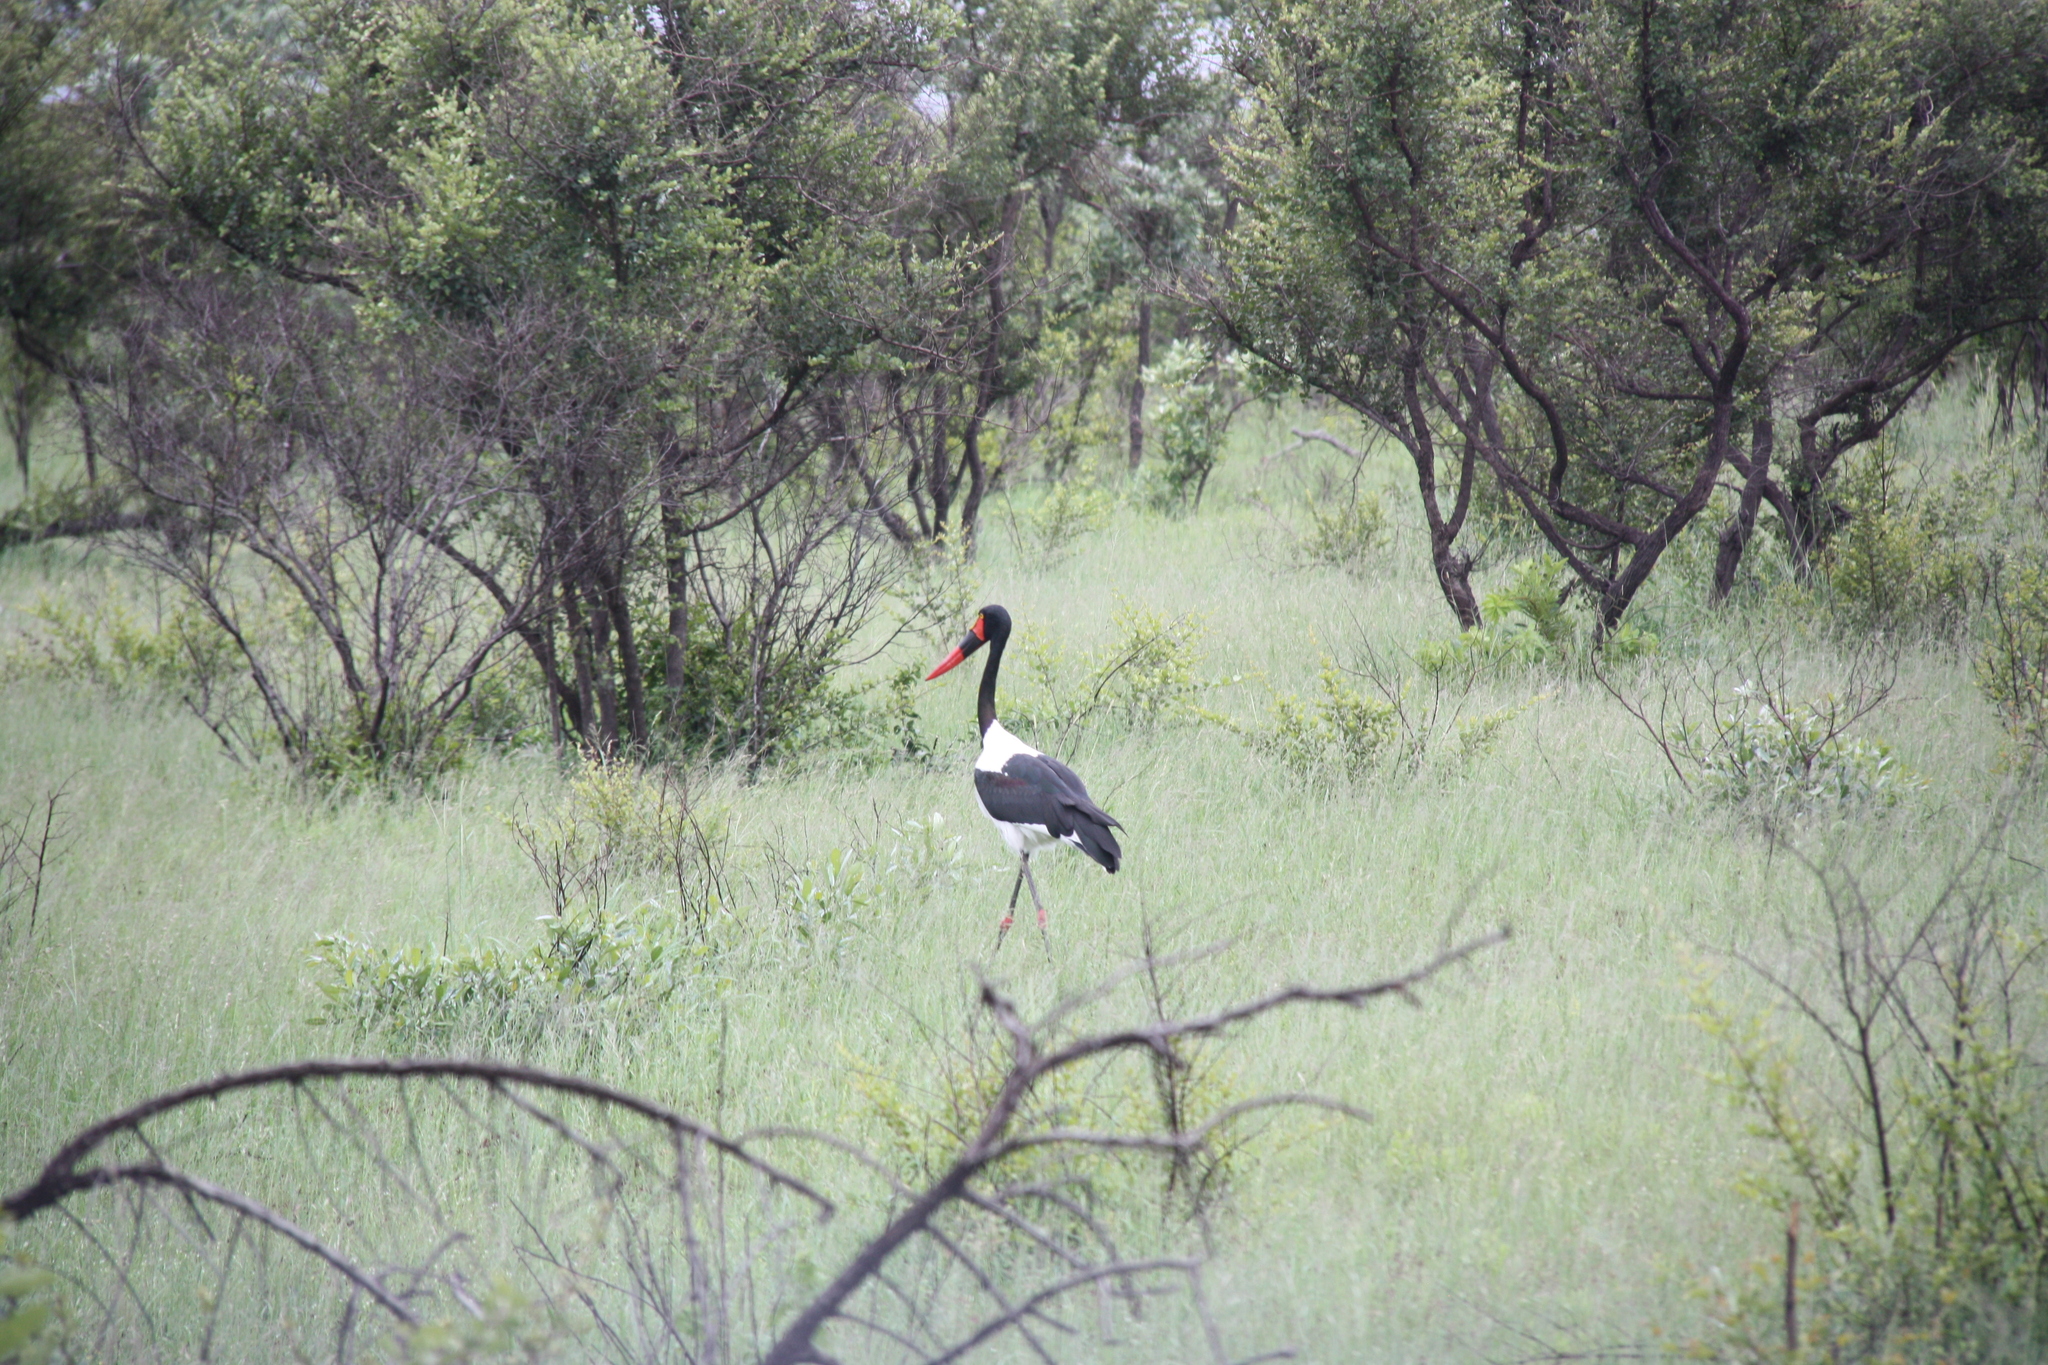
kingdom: Animalia
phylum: Chordata
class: Aves
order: Ciconiiformes
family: Ciconiidae
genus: Ephippiorhynchus
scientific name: Ephippiorhynchus senegalensis
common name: Saddle-billed stork
